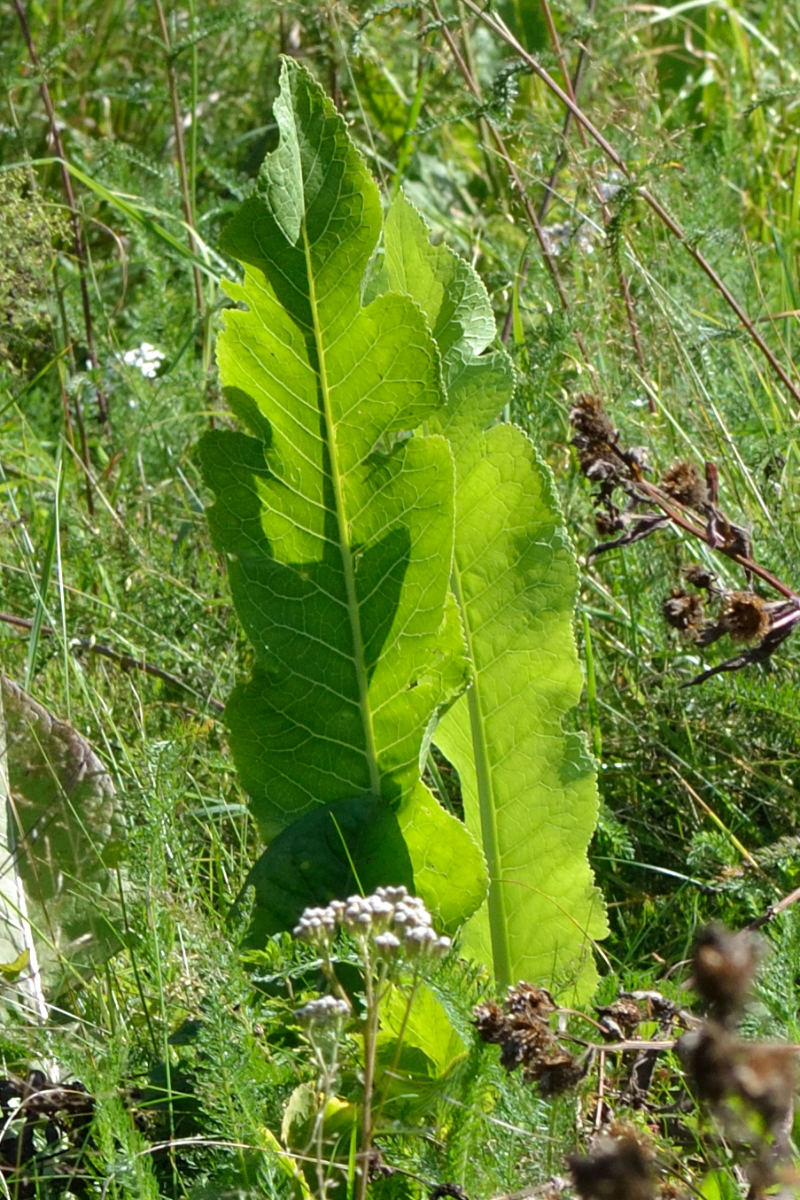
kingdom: Plantae
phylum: Tracheophyta
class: Magnoliopsida
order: Brassicales
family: Brassicaceae
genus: Armoracia
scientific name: Armoracia rusticana
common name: Horseradish
